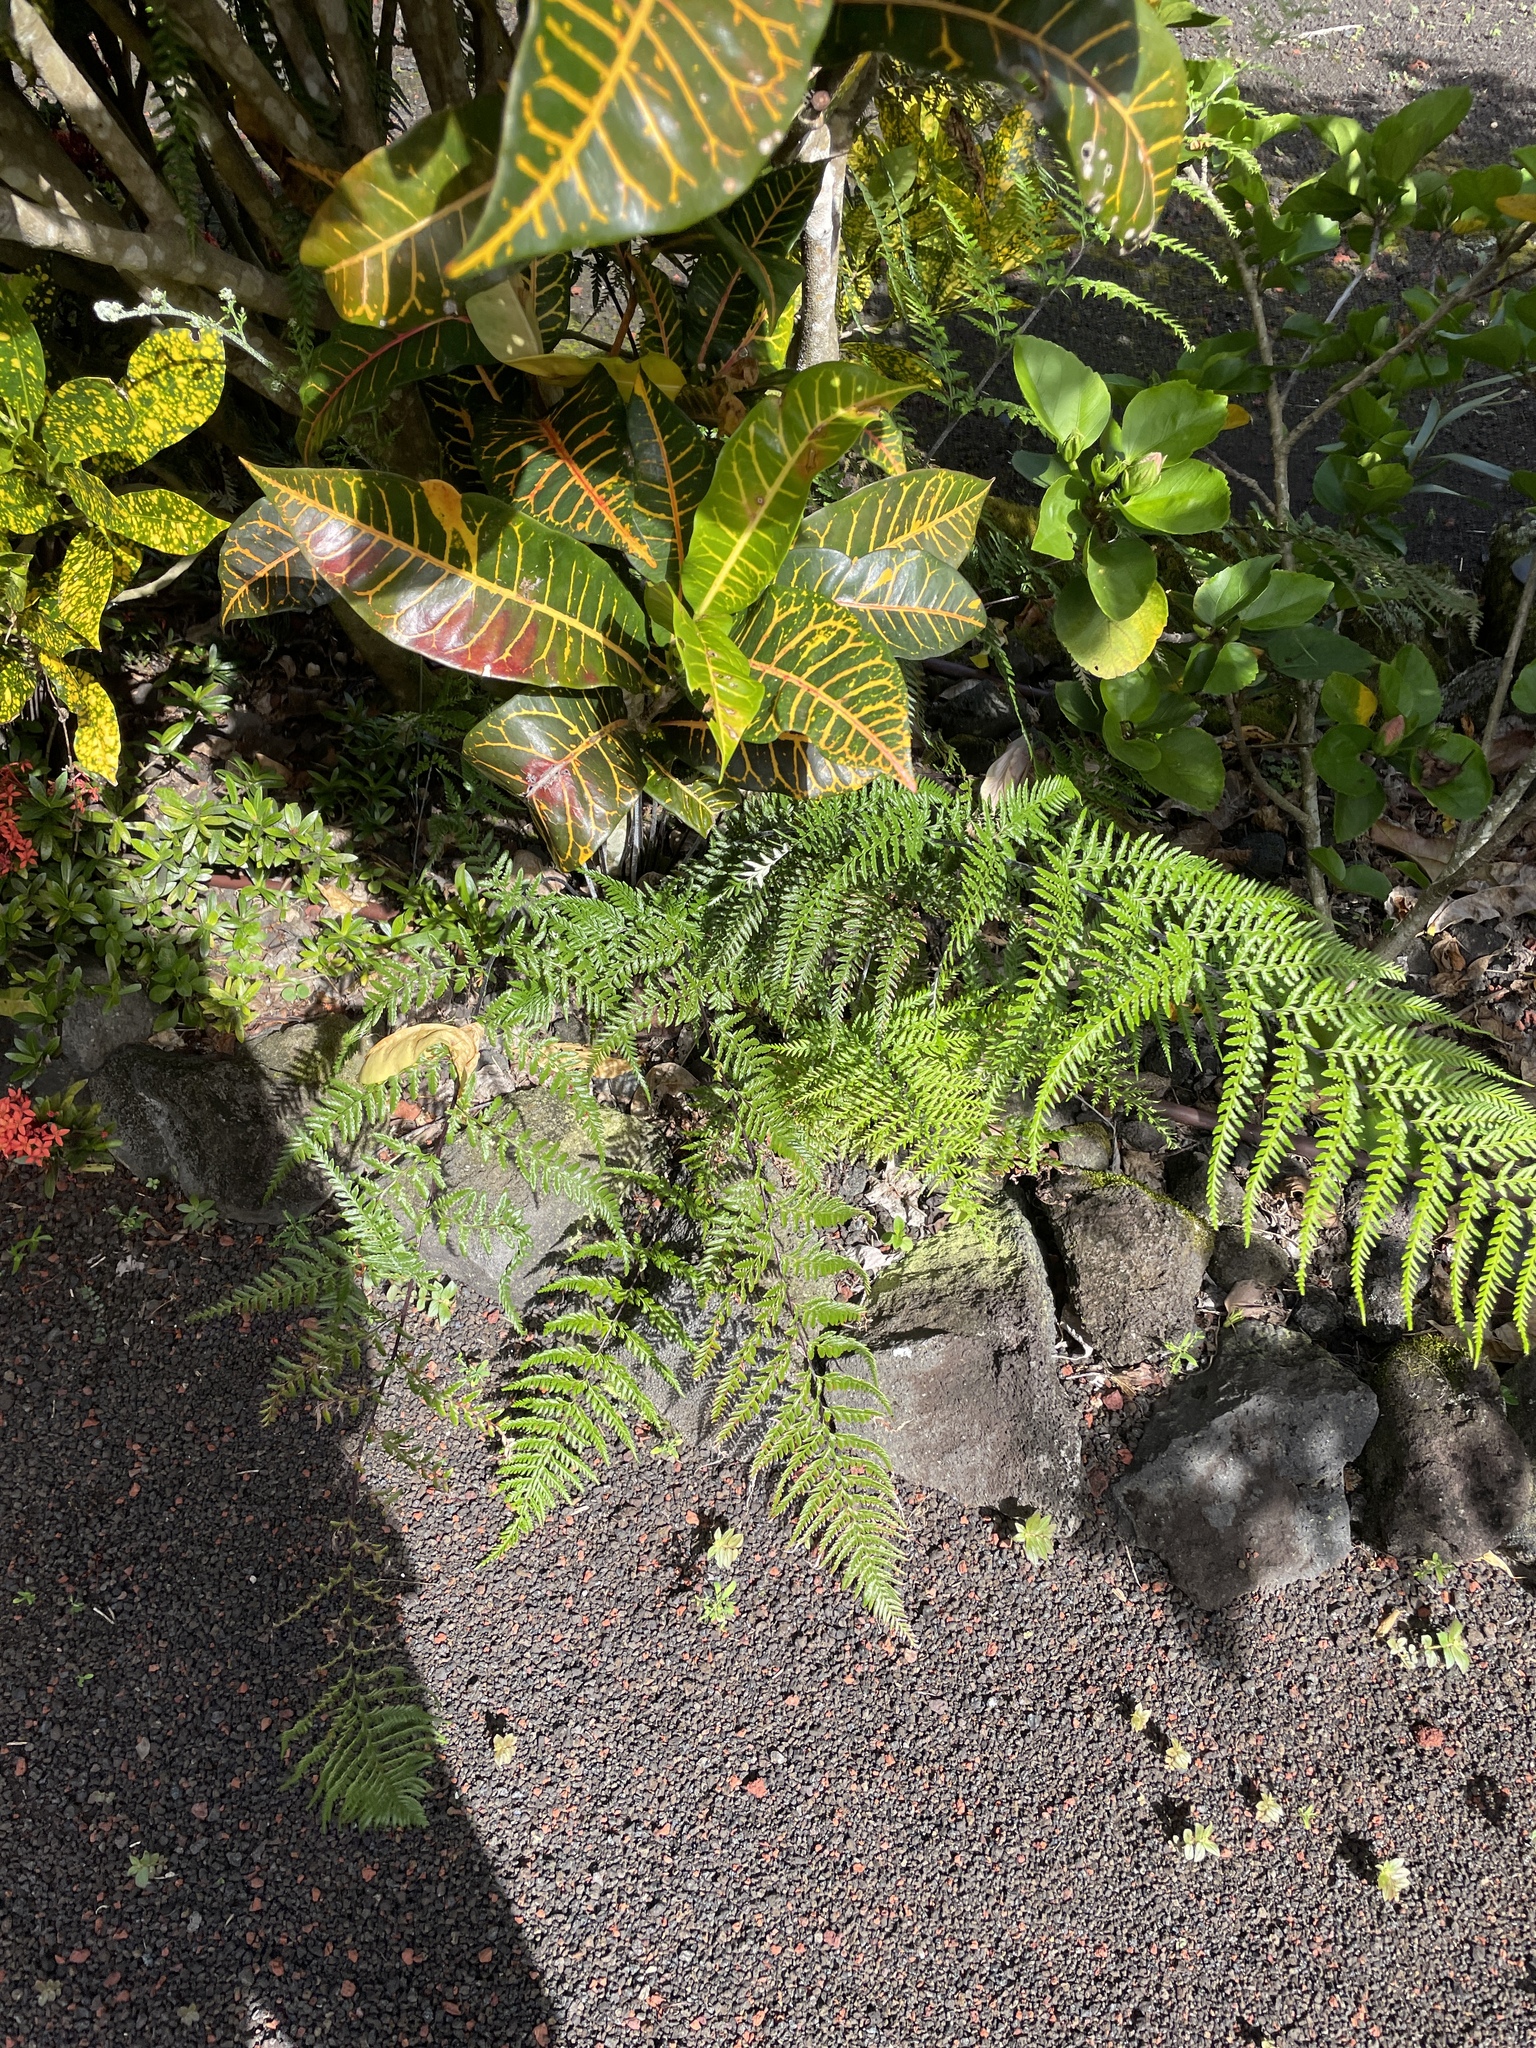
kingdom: Plantae
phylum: Tracheophyta
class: Polypodiopsida
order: Polypodiales
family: Pteridaceae
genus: Pityrogramma
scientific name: Pityrogramma calomelanos
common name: Dixie silverback fern
